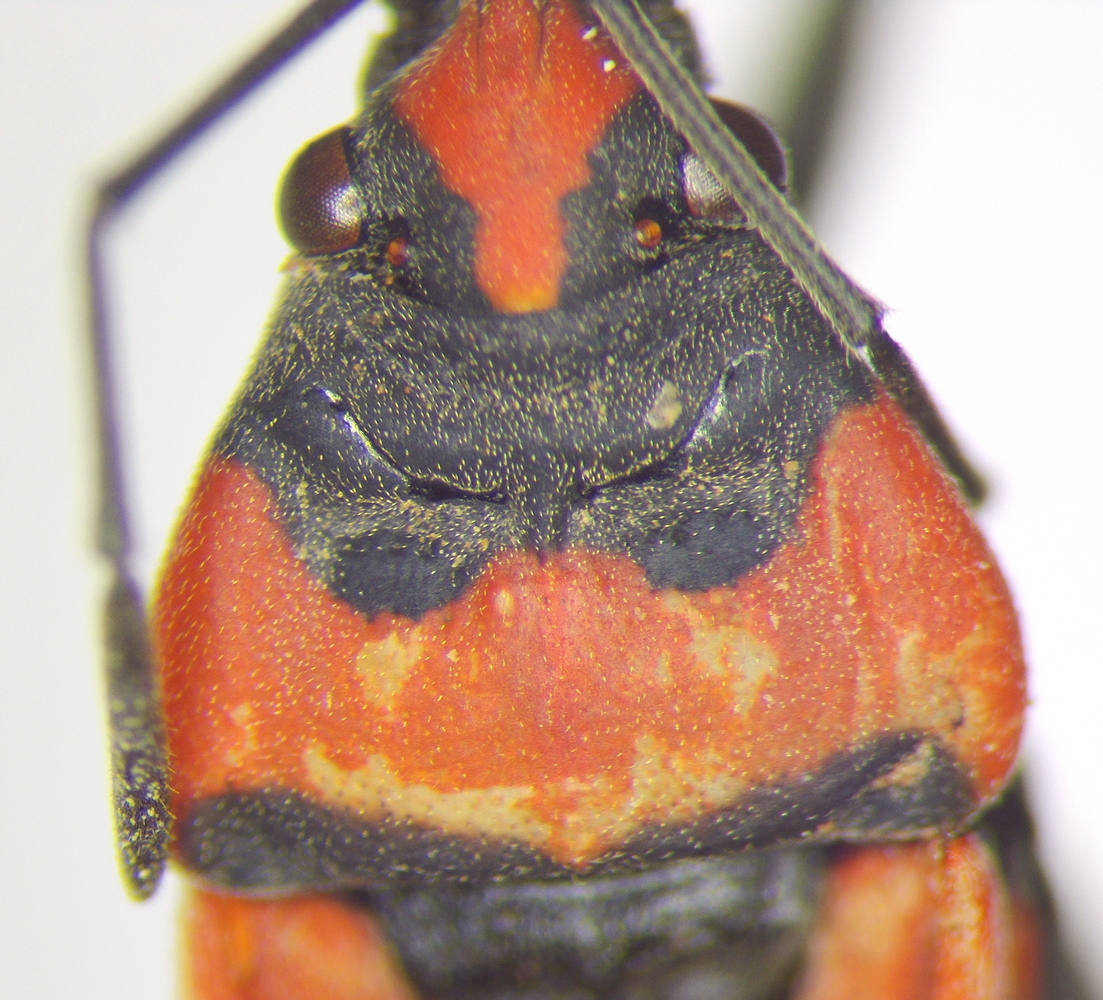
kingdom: Animalia
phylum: Arthropoda
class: Insecta
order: Hemiptera
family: Lygaeidae
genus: Lygaeus
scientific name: Lygaeus equestris
